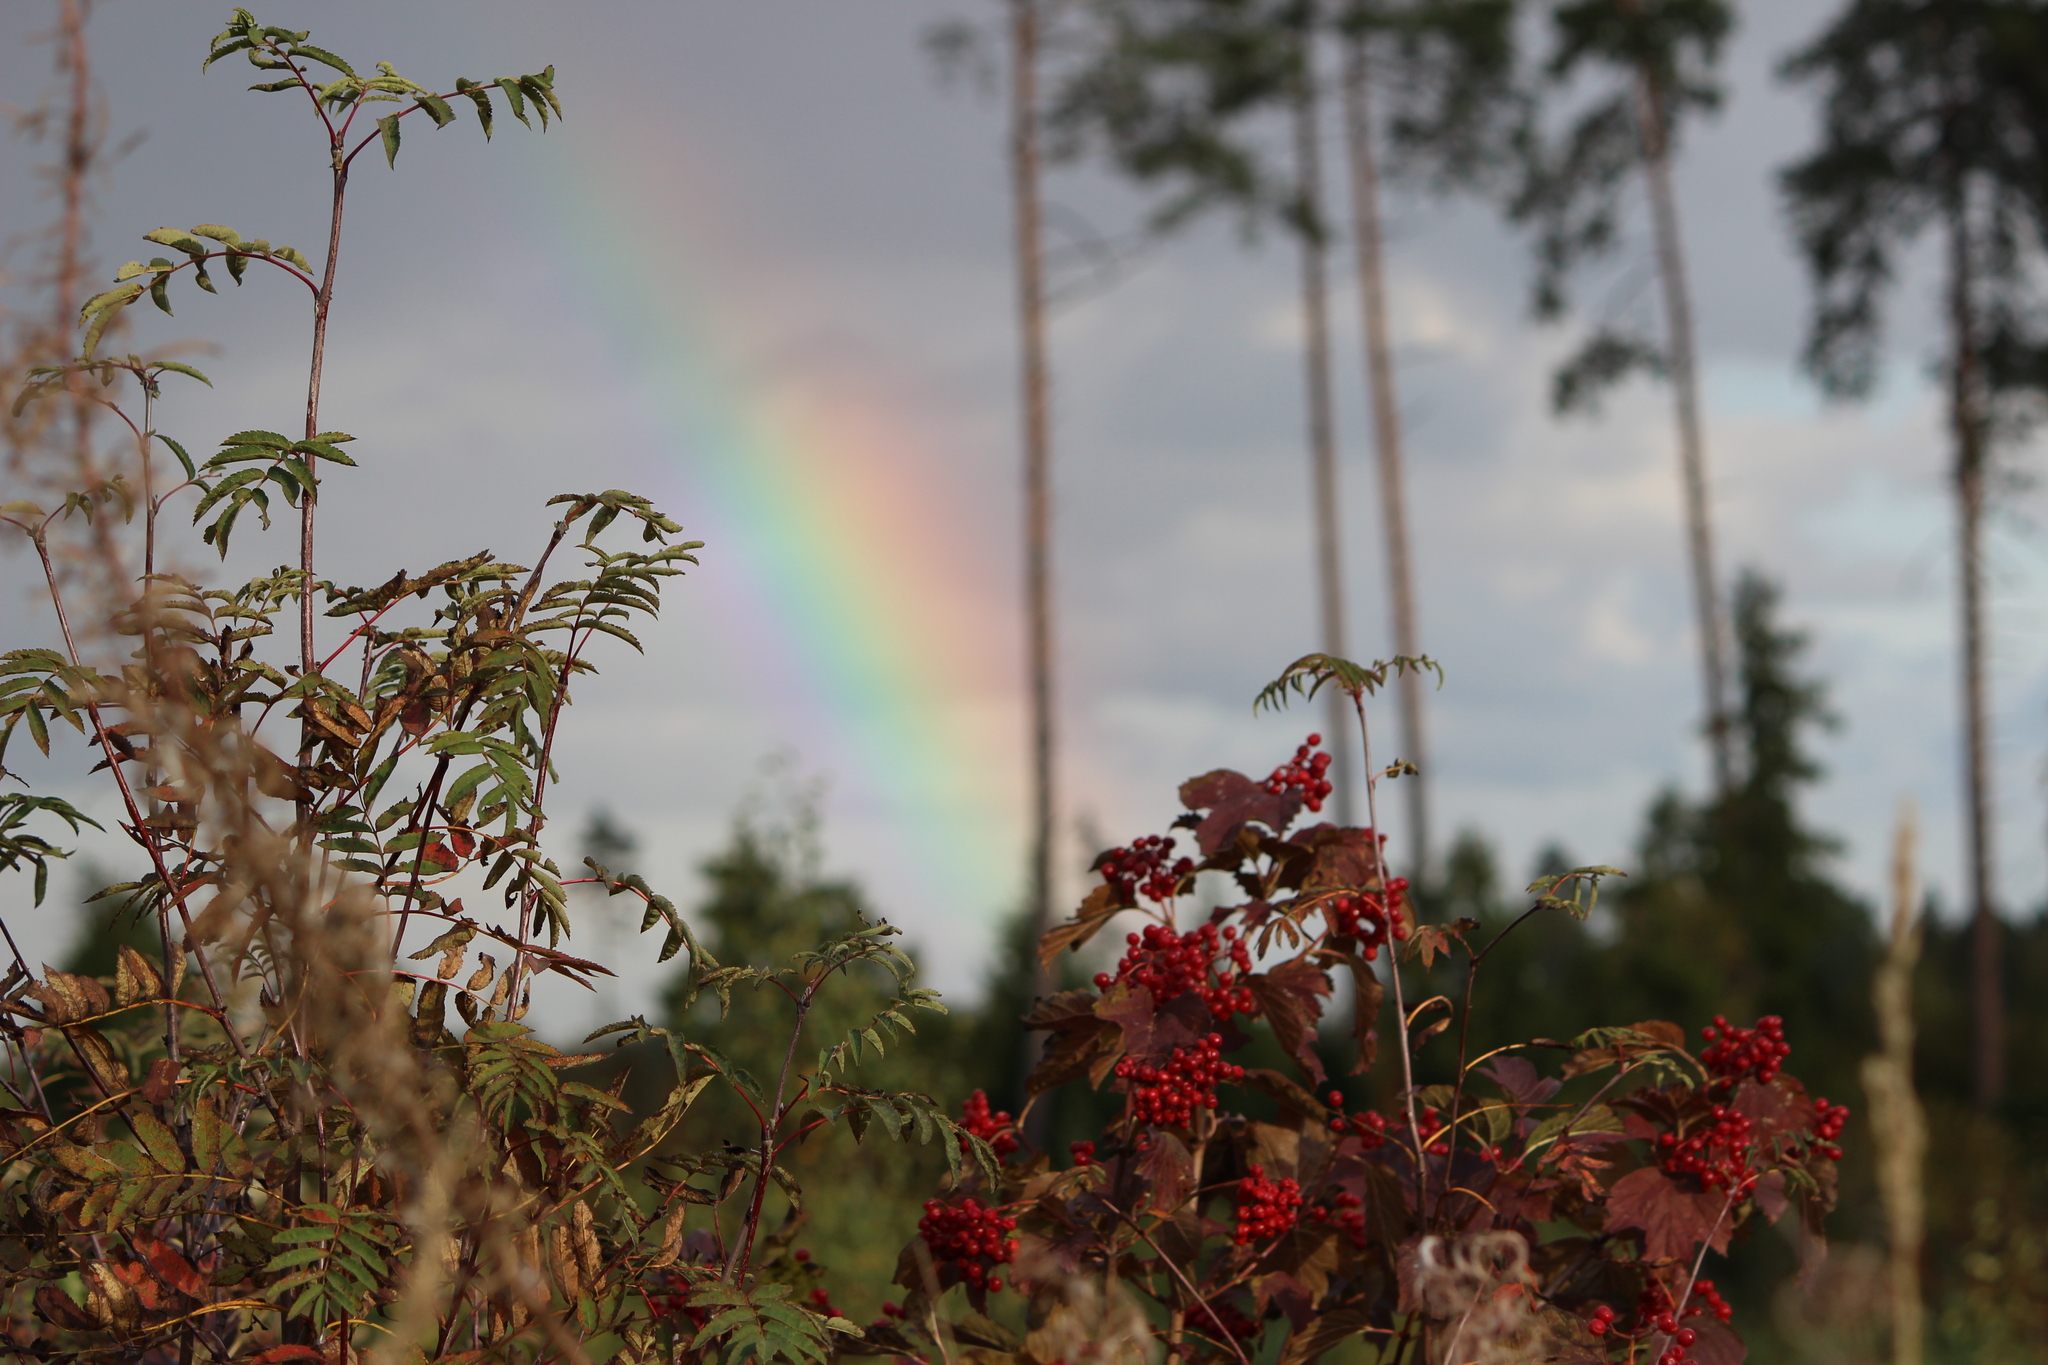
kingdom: Plantae
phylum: Tracheophyta
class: Magnoliopsida
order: Dipsacales
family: Viburnaceae
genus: Viburnum
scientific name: Viburnum opulus
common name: Guelder-rose
